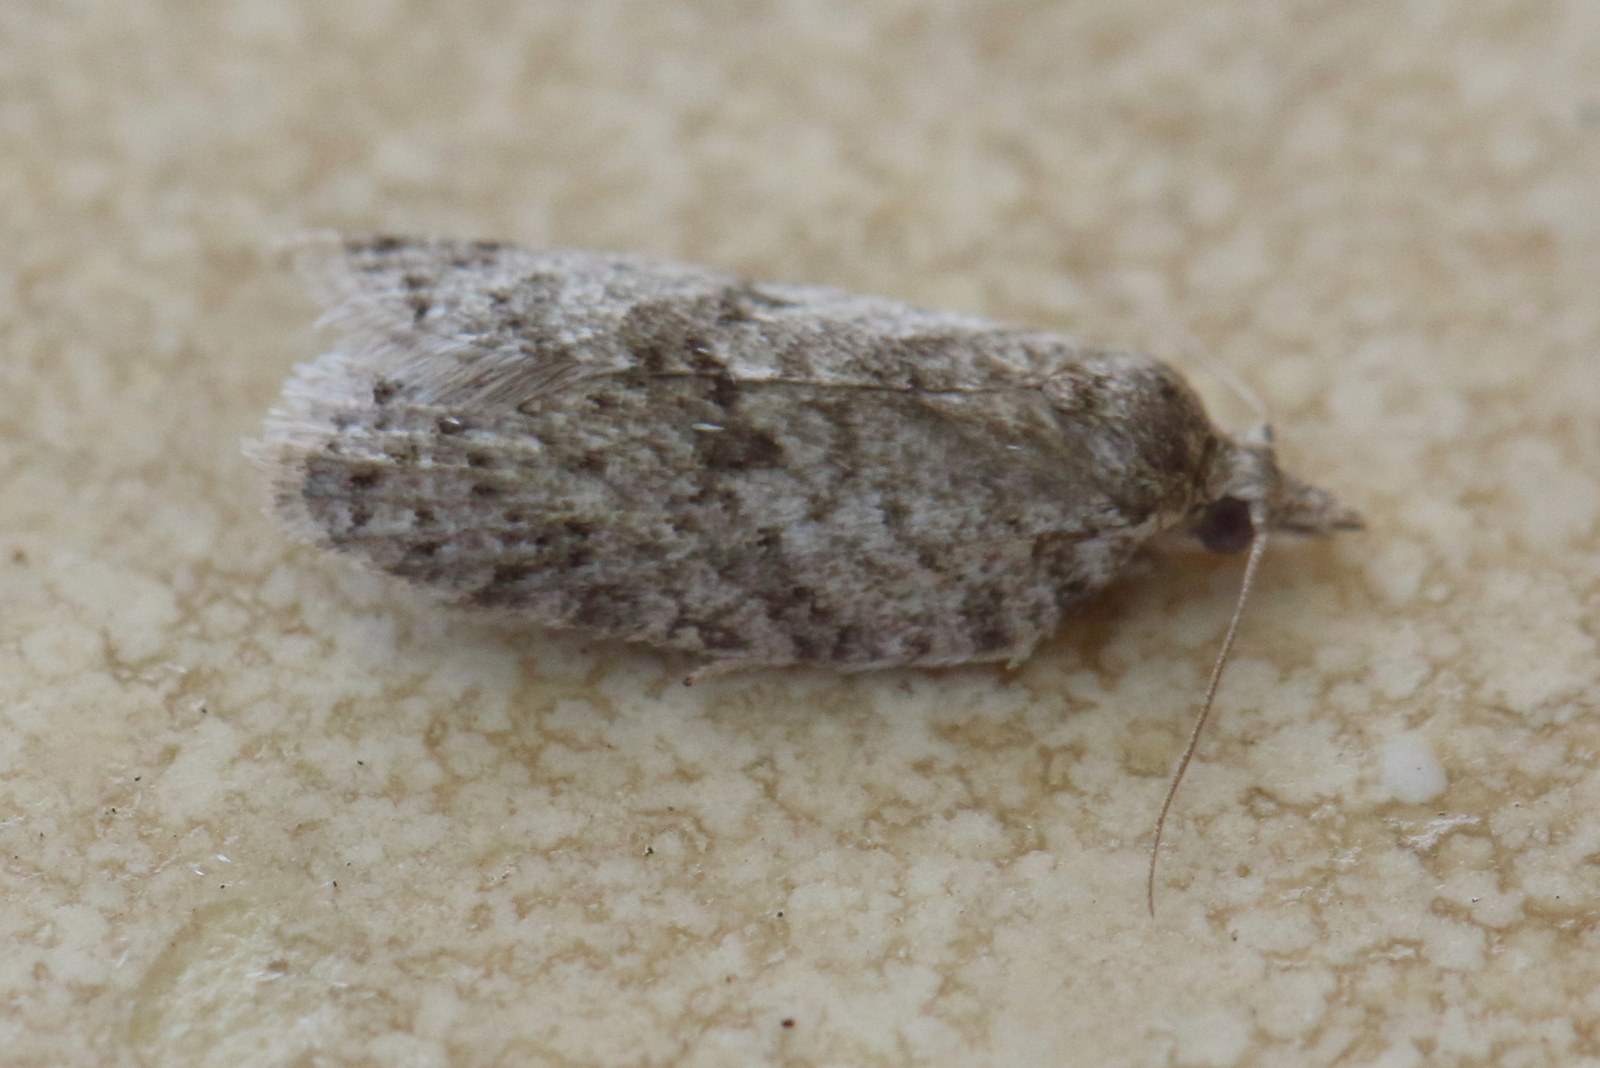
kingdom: Animalia
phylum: Arthropoda
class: Insecta
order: Lepidoptera
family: Tortricidae
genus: Isotenes
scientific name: Isotenes miserana
